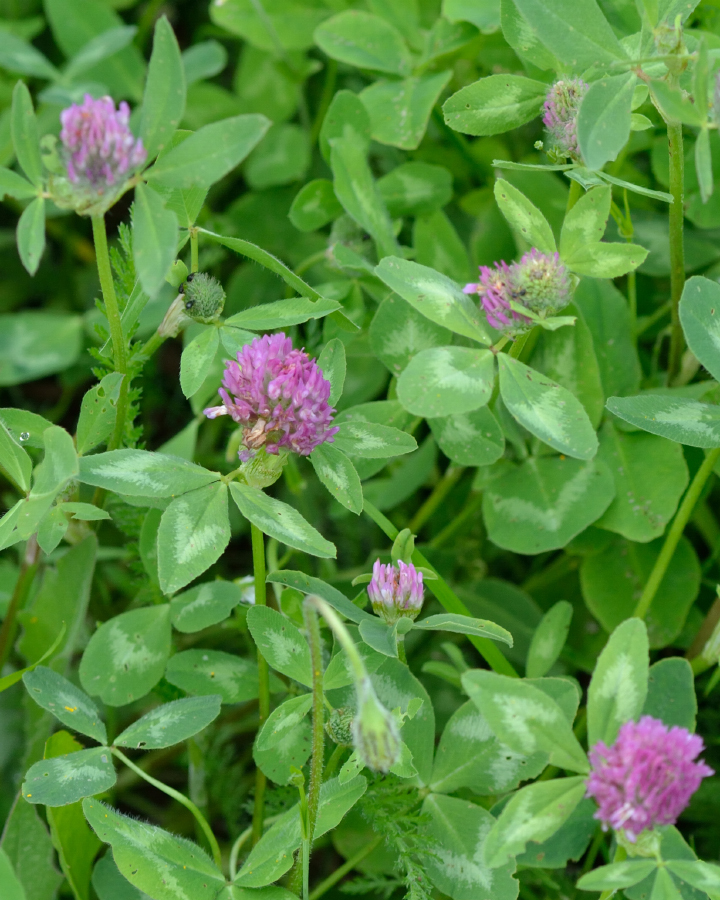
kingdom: Plantae
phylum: Tracheophyta
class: Magnoliopsida
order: Fabales
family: Fabaceae
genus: Trifolium
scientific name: Trifolium pratense
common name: Red clover
